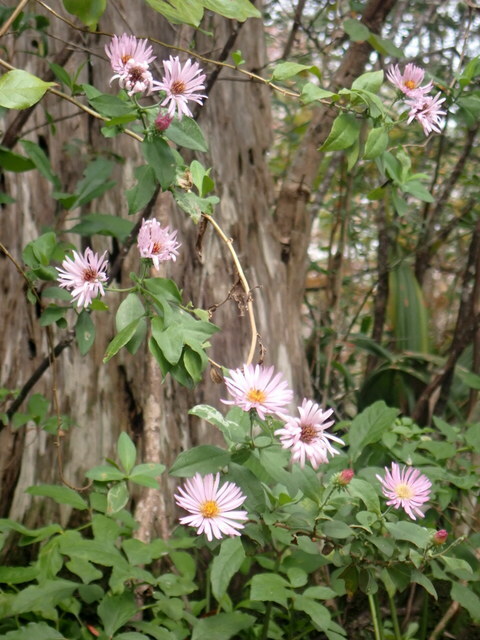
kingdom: Plantae
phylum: Tracheophyta
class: Magnoliopsida
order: Asterales
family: Asteraceae
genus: Ampelaster
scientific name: Ampelaster carolinianus
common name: Climbing aster
